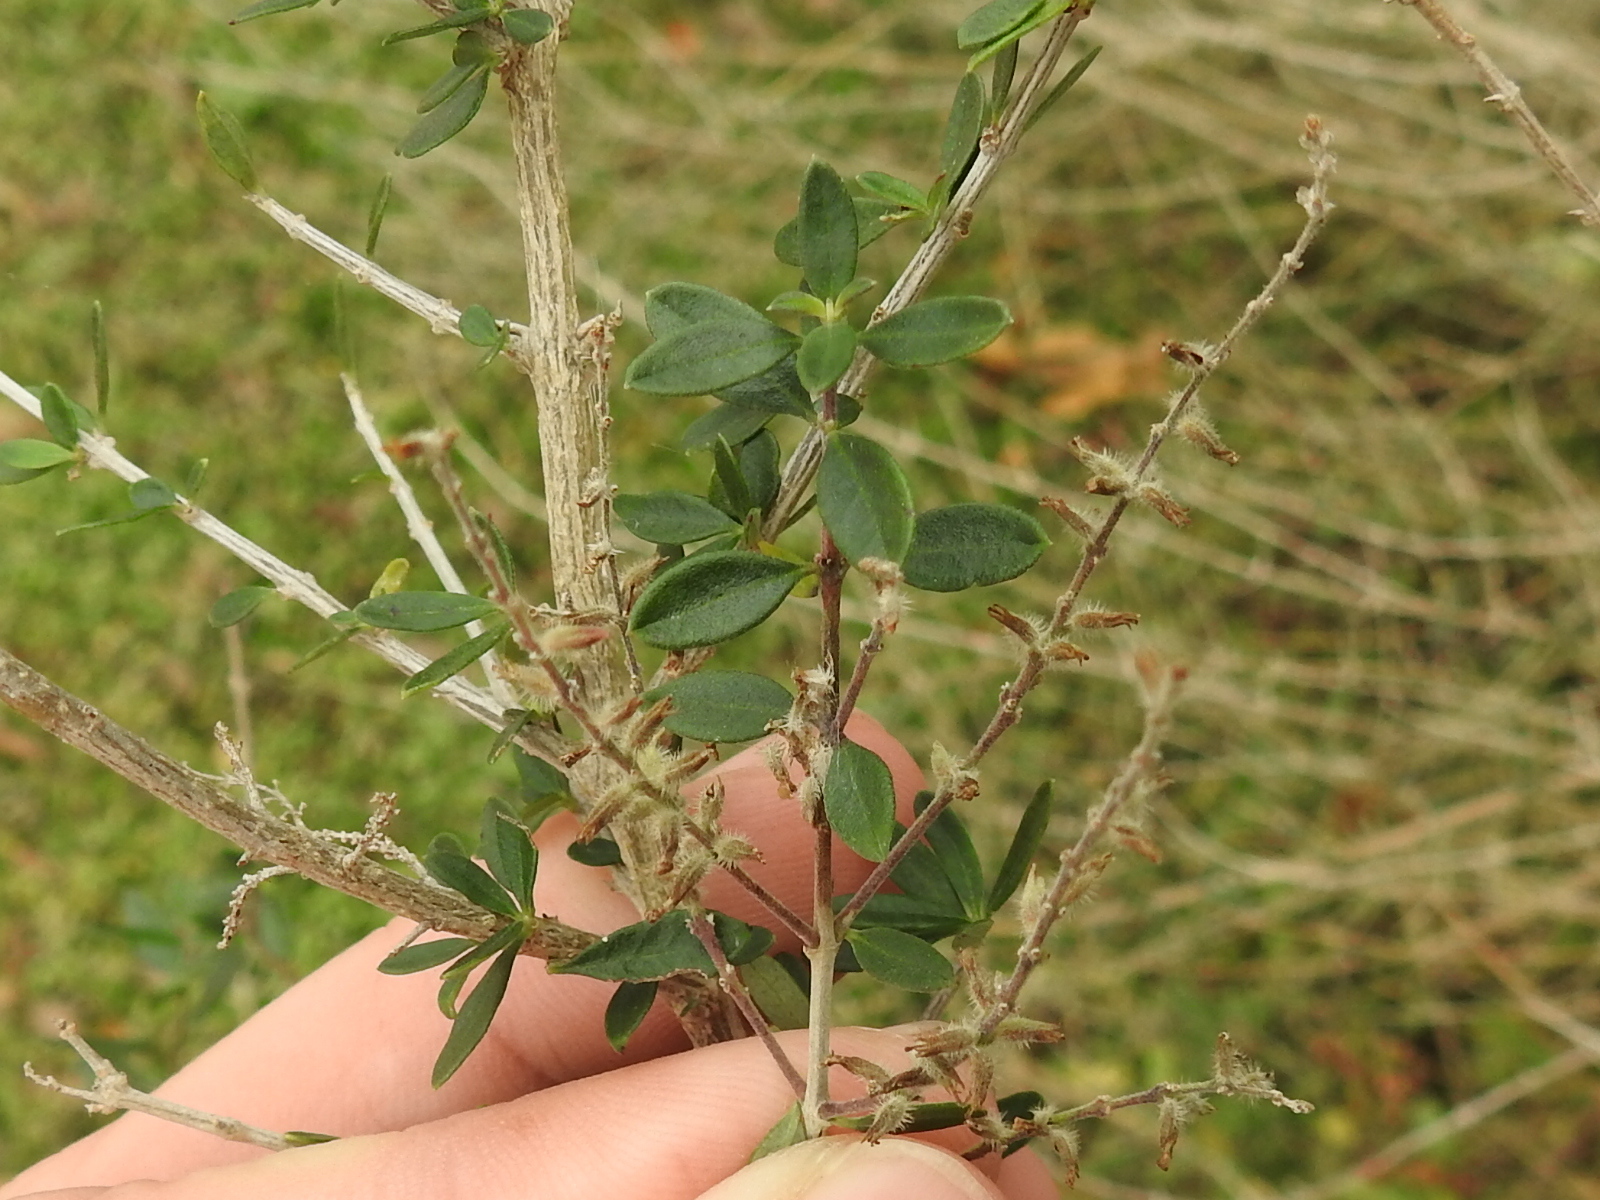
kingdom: Plantae
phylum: Tracheophyta
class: Magnoliopsida
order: Lamiales
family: Verbenaceae
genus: Aloysia
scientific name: Aloysia gratissima
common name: Common bee-brush
